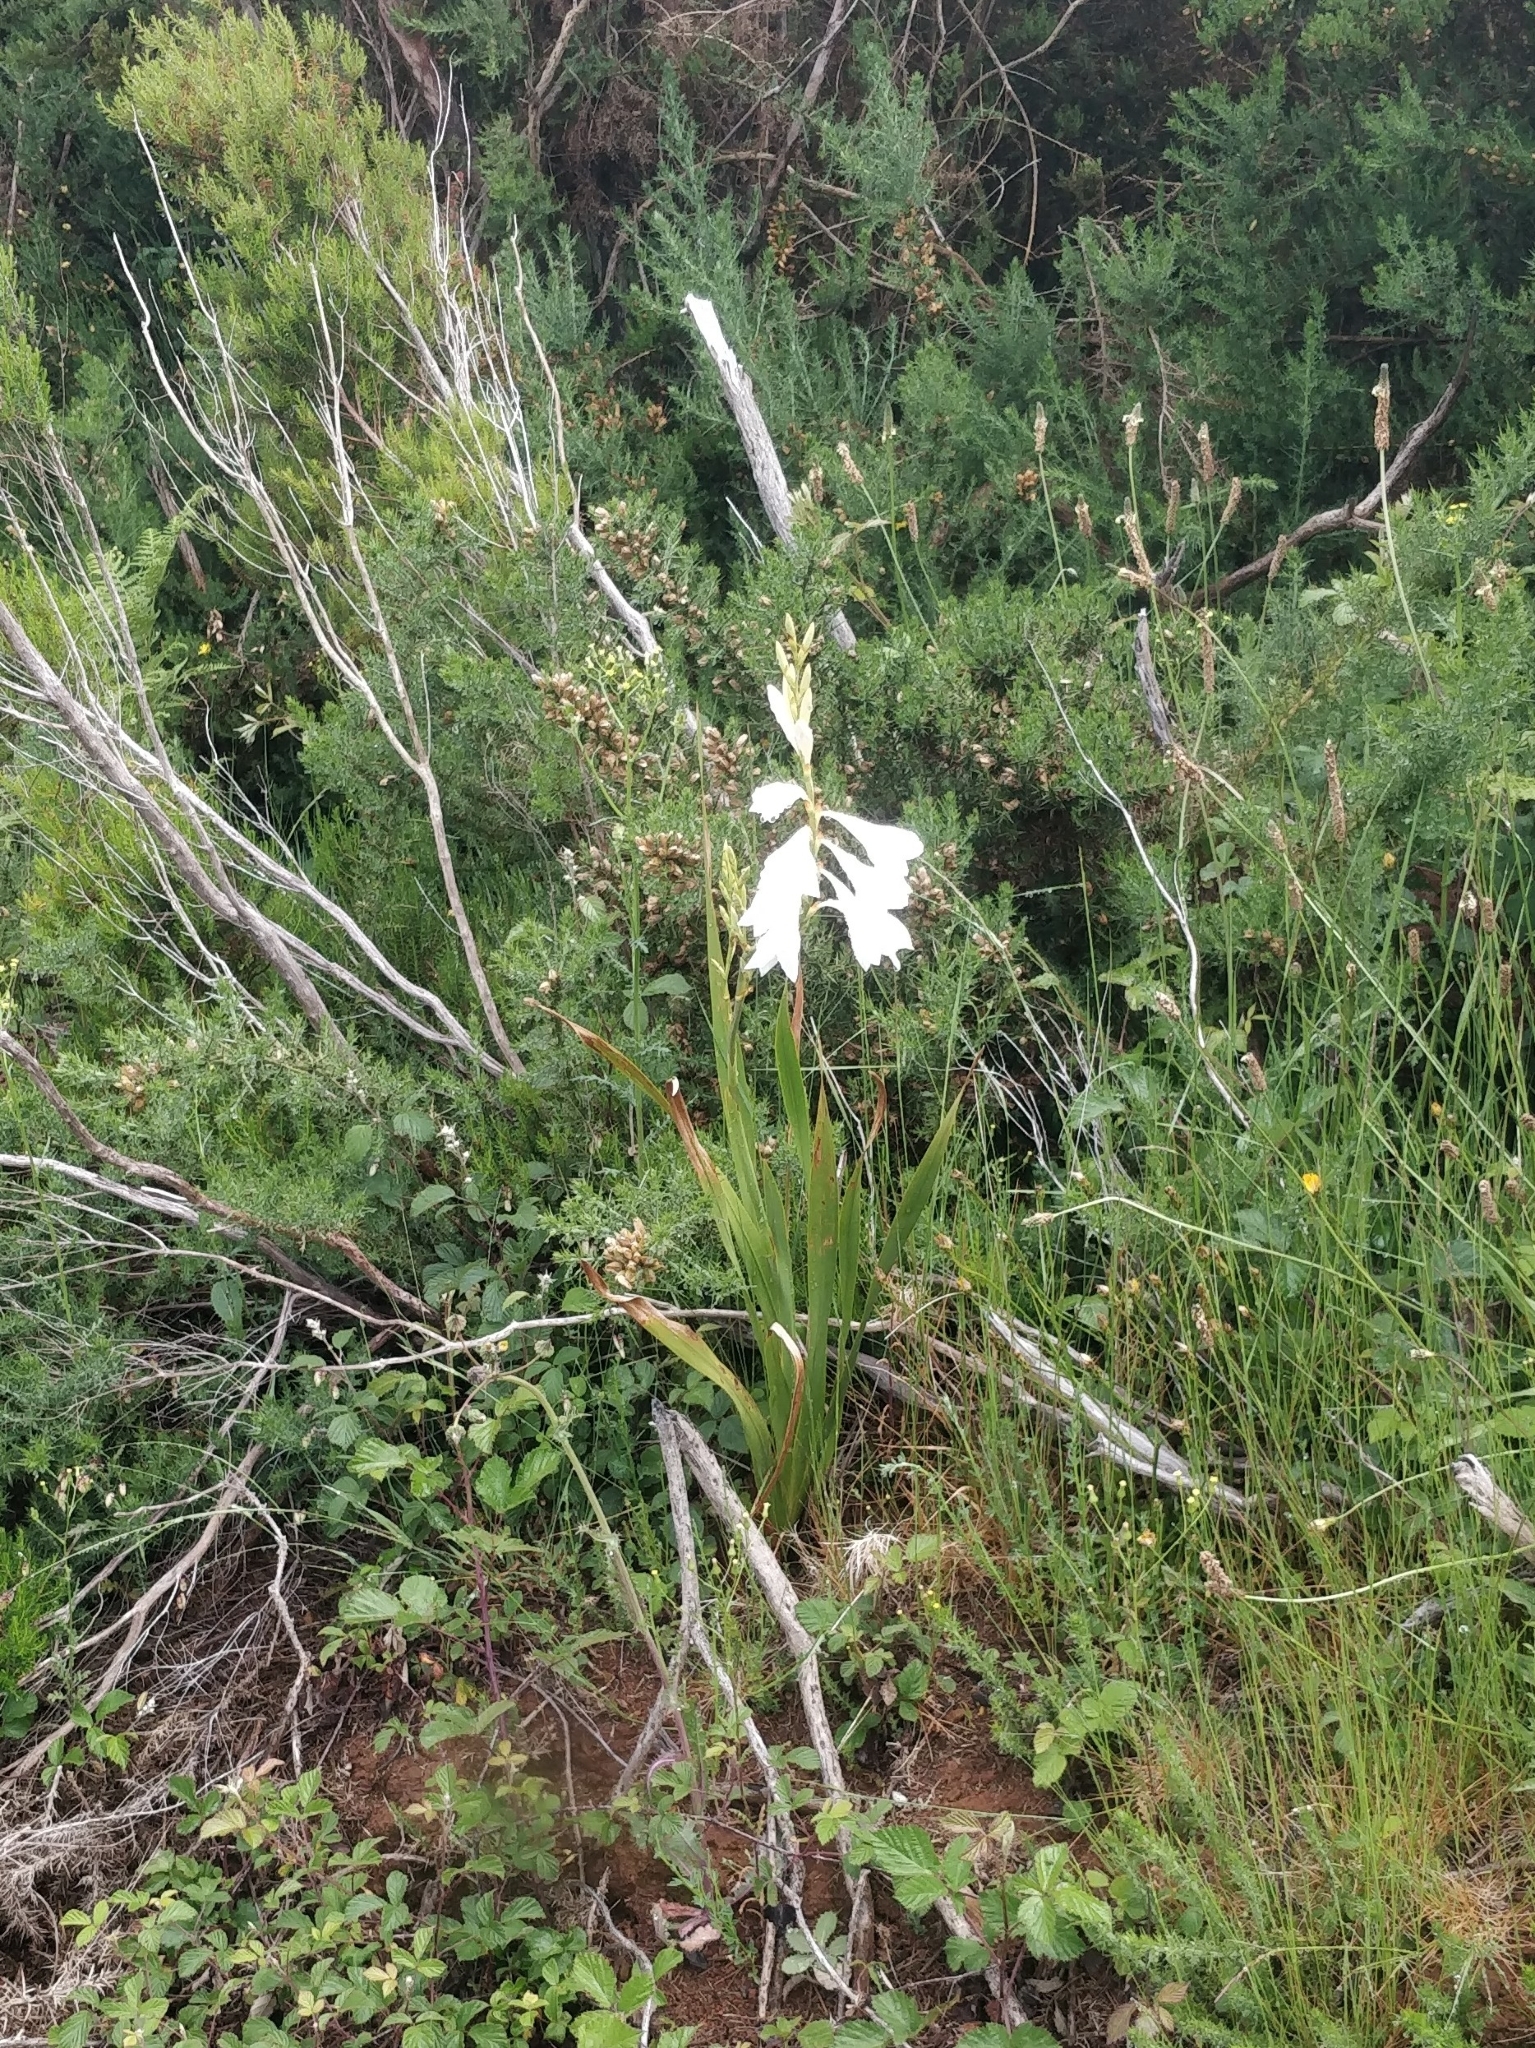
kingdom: Plantae
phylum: Tracheophyta
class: Liliopsida
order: Asparagales
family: Iridaceae
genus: Watsonia
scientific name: Watsonia borbonica
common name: Bugle-lily
